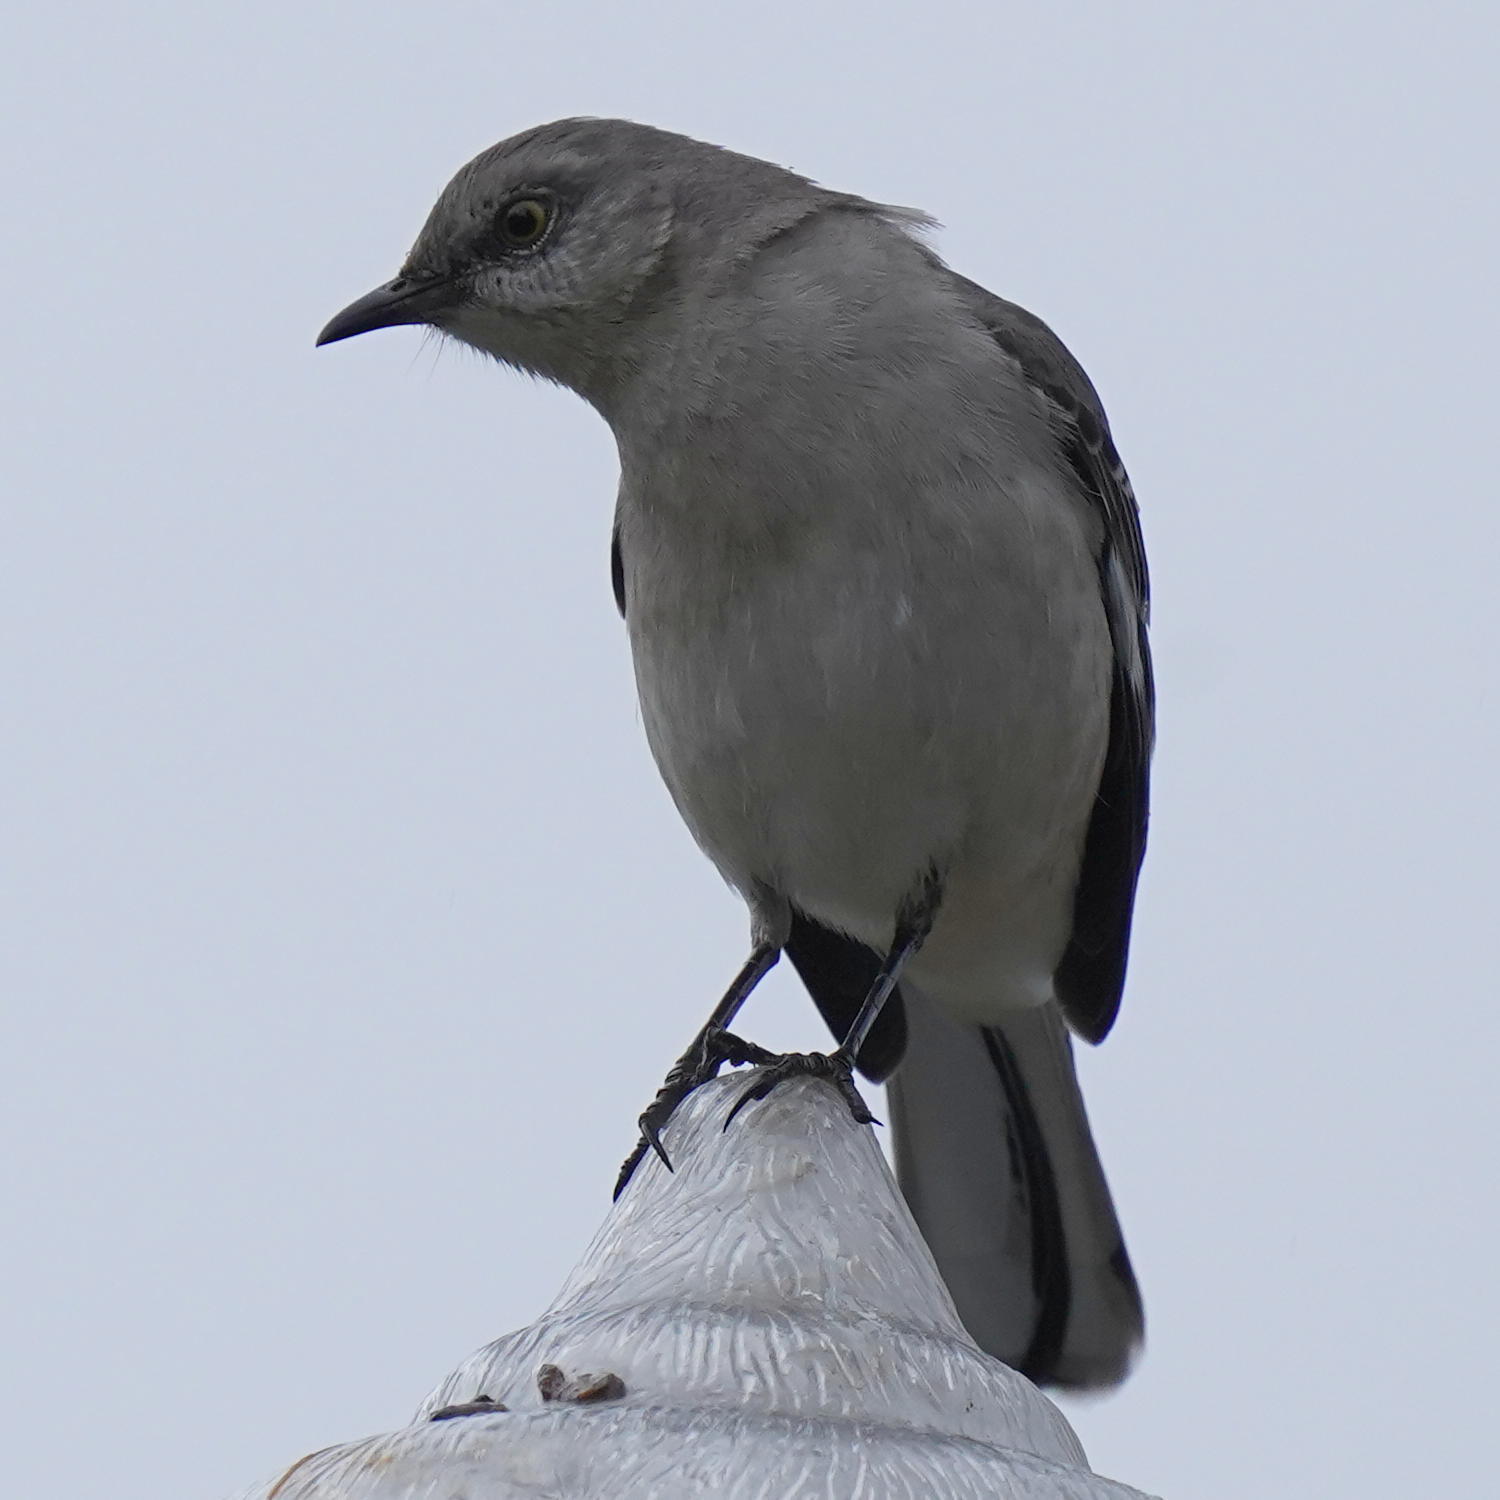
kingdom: Animalia
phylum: Chordata
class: Aves
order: Passeriformes
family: Mimidae
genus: Mimus
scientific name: Mimus polyglottos
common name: Northern mockingbird
